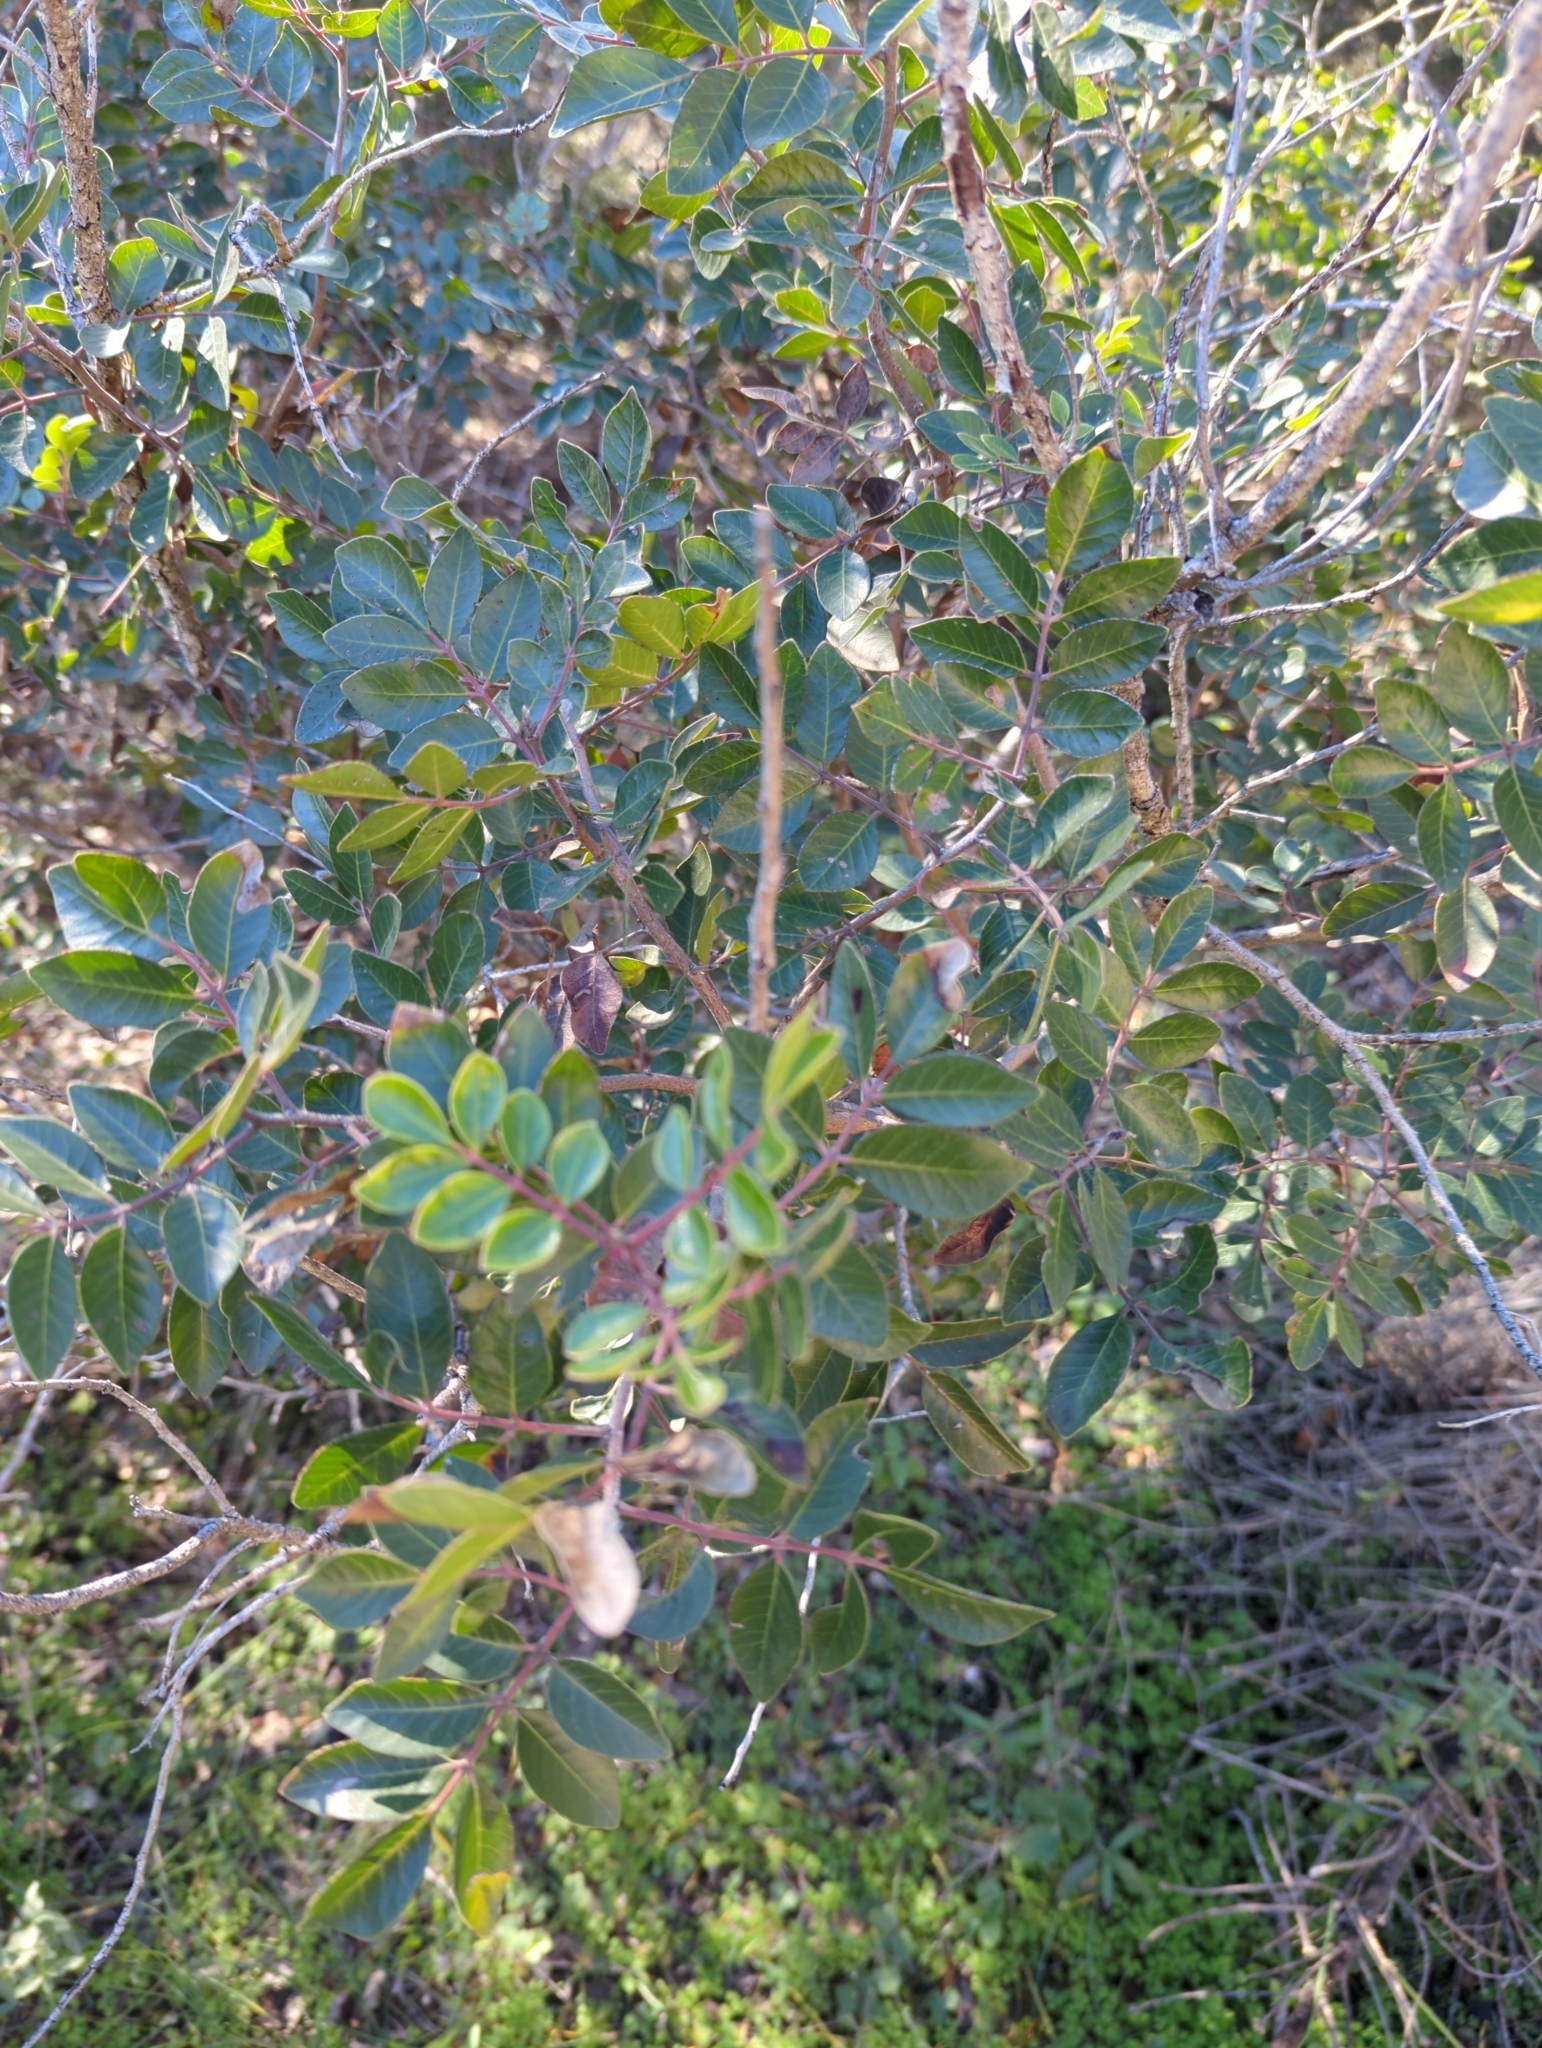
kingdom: Plantae
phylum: Tracheophyta
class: Magnoliopsida
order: Sapindales
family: Anacardiaceae
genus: Rhus
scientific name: Rhus virens
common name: Evergreen sumac
